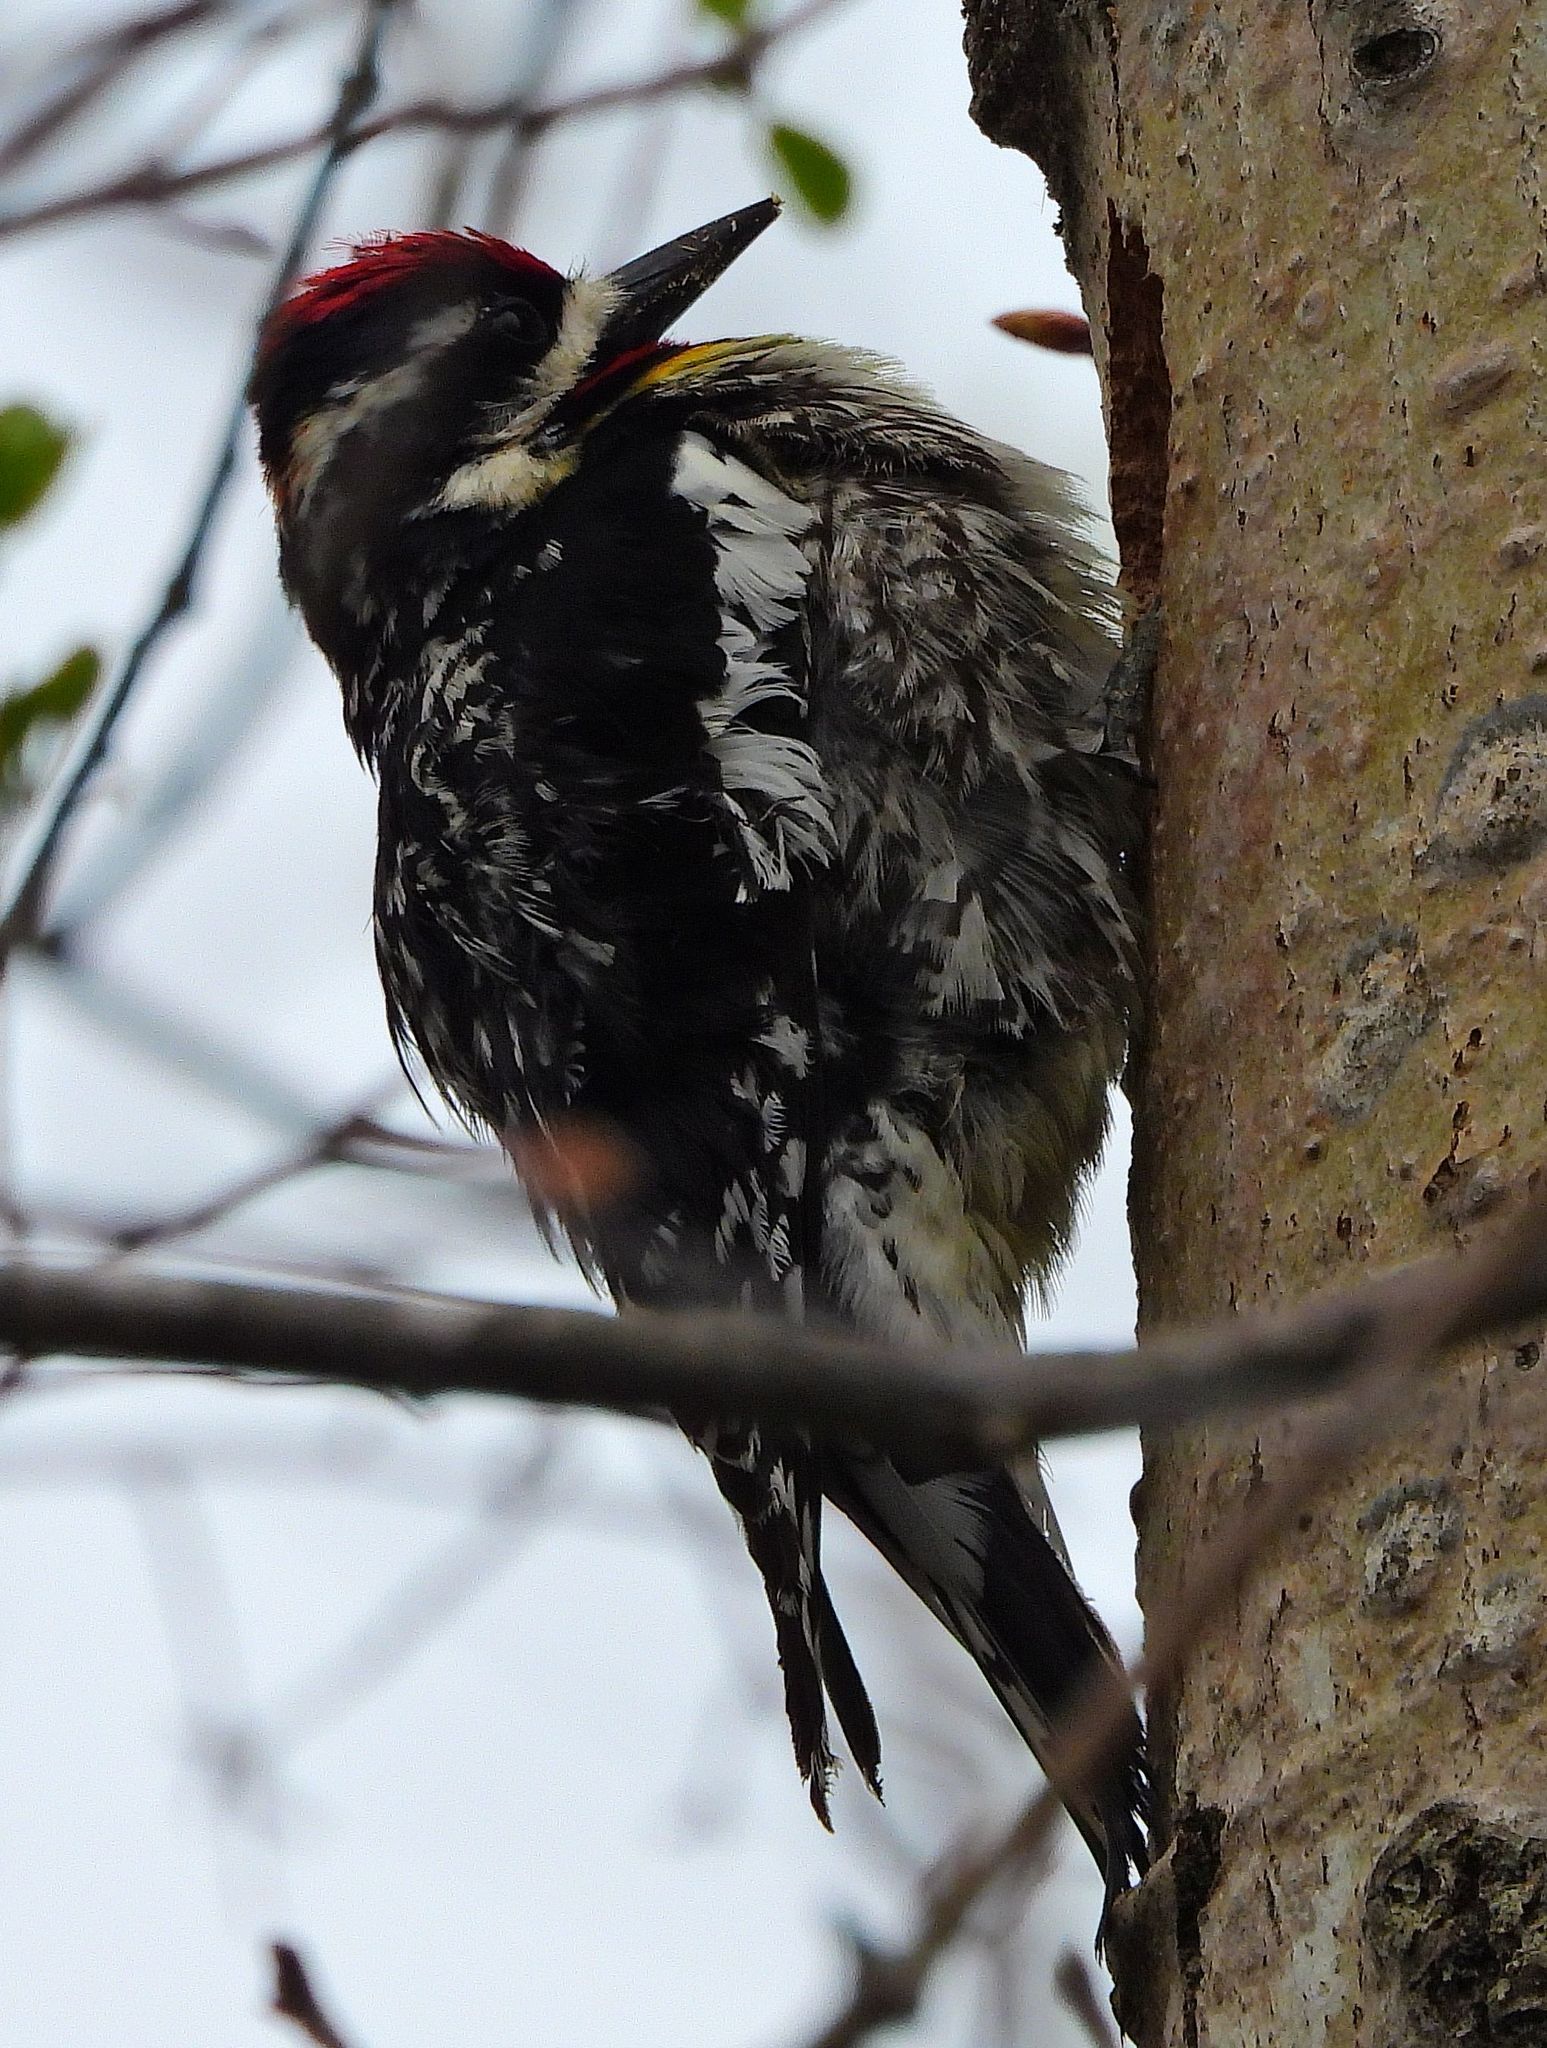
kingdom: Animalia
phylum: Chordata
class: Aves
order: Piciformes
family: Picidae
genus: Sphyrapicus
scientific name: Sphyrapicus varius
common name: Yellow-bellied sapsucker
